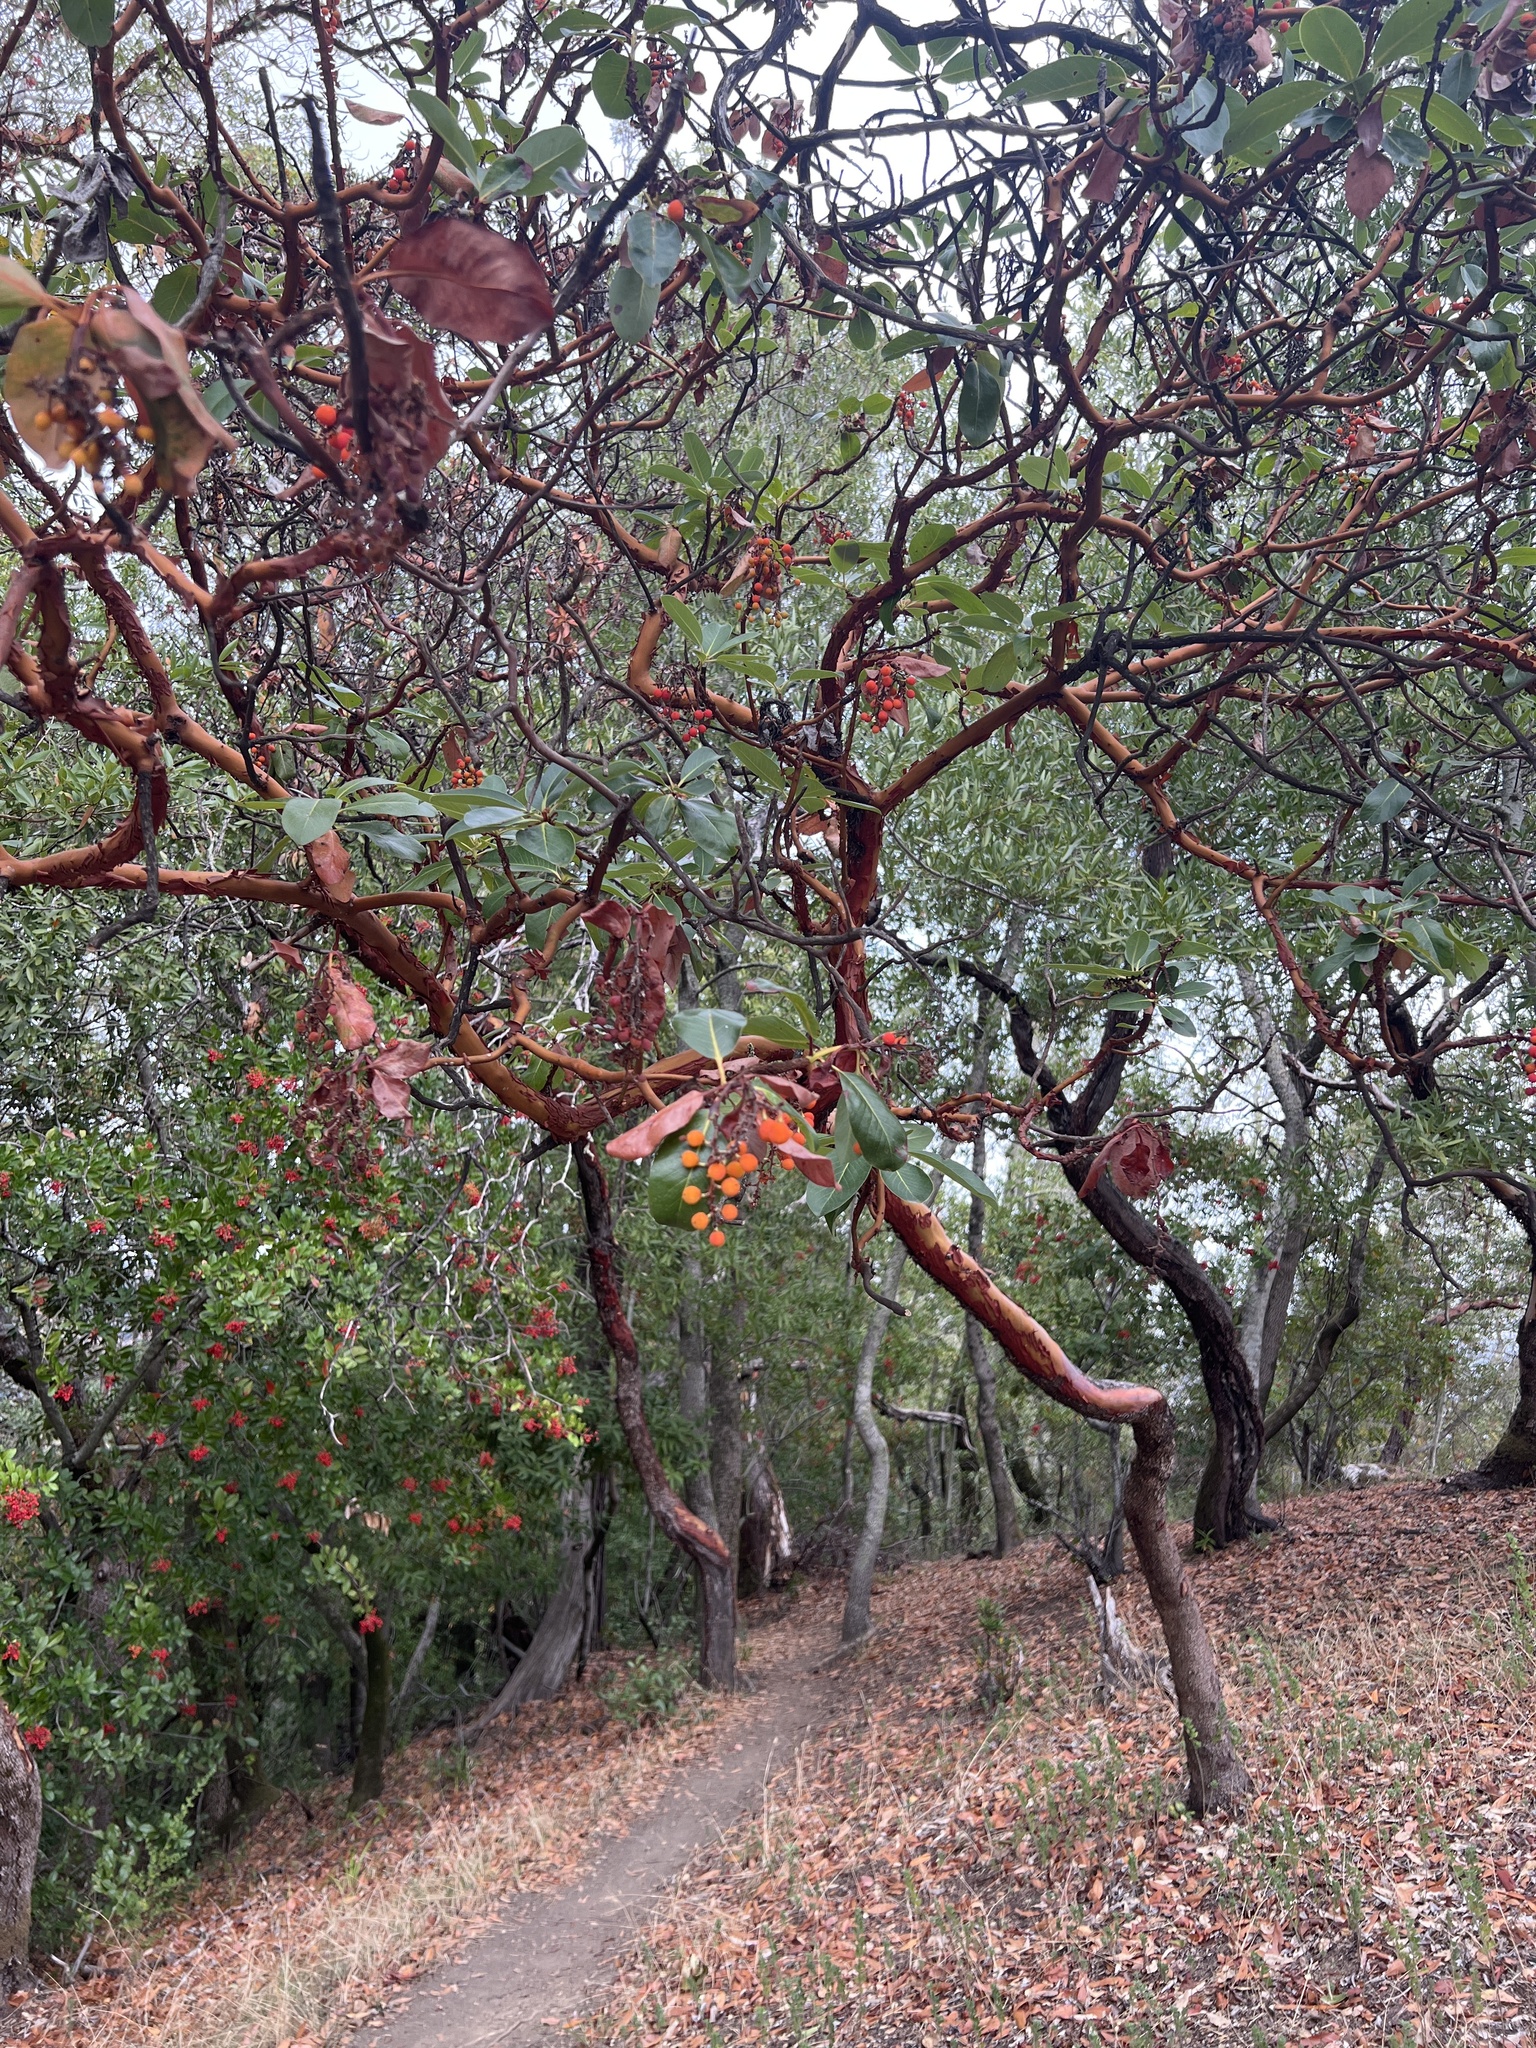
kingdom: Plantae
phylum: Tracheophyta
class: Magnoliopsida
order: Ericales
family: Ericaceae
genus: Arbutus
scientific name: Arbutus menziesii
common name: Pacific madrone
